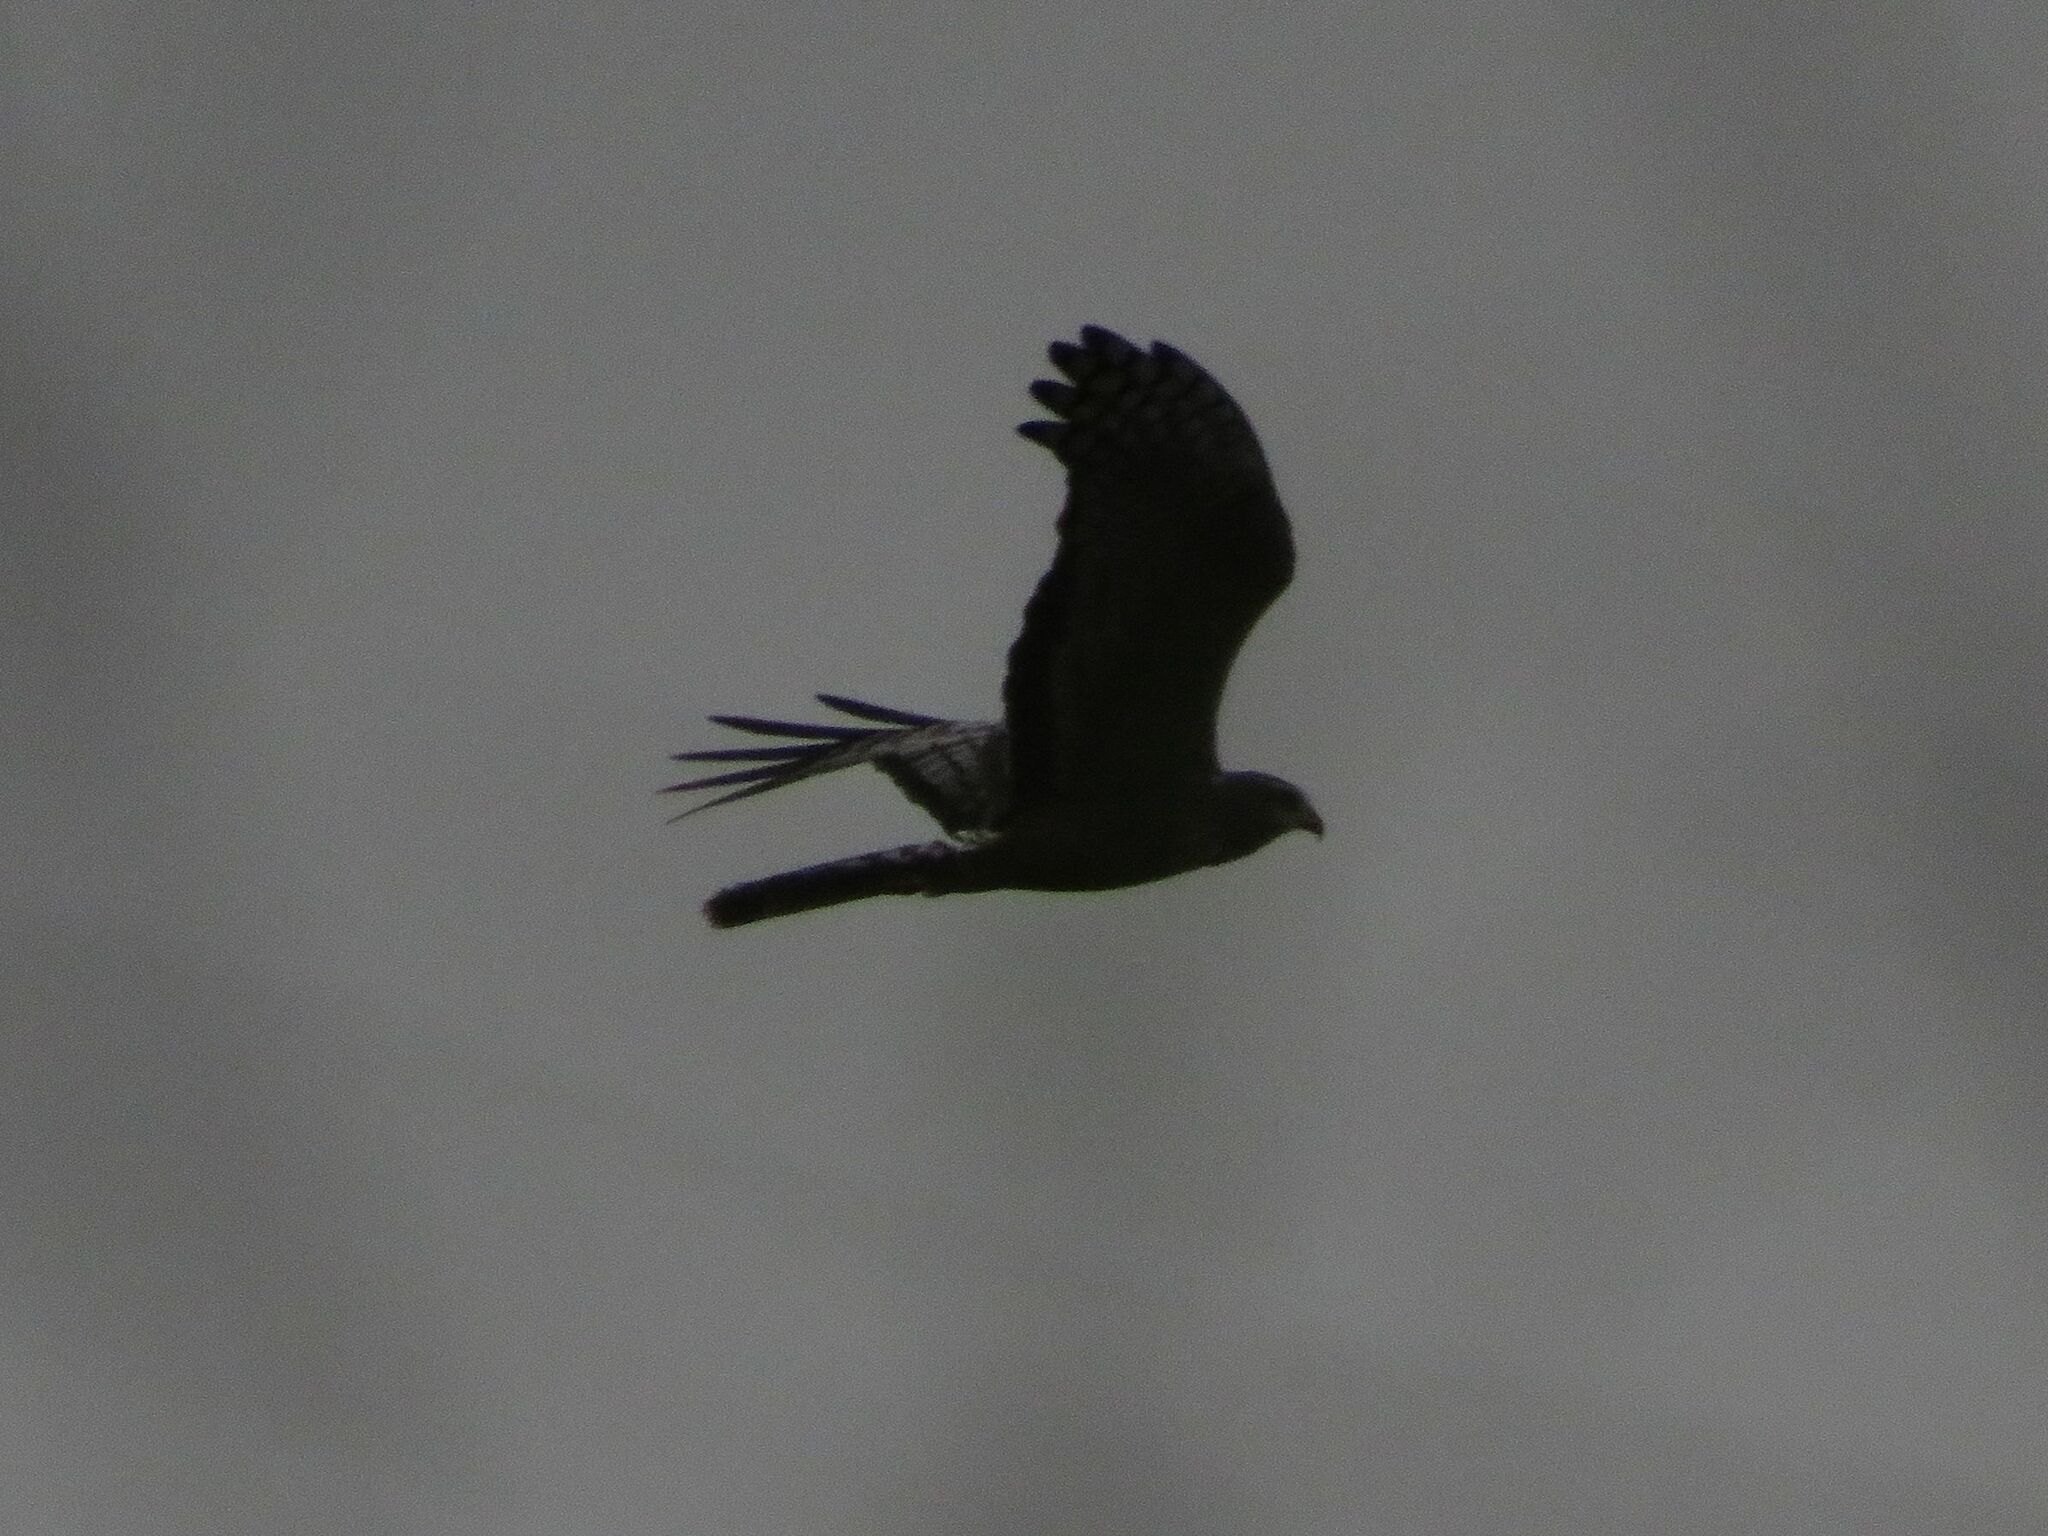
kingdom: Animalia
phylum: Chordata
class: Aves
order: Accipitriformes
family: Accipitridae
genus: Circus
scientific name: Circus buffoni
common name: Long-winged harrier
